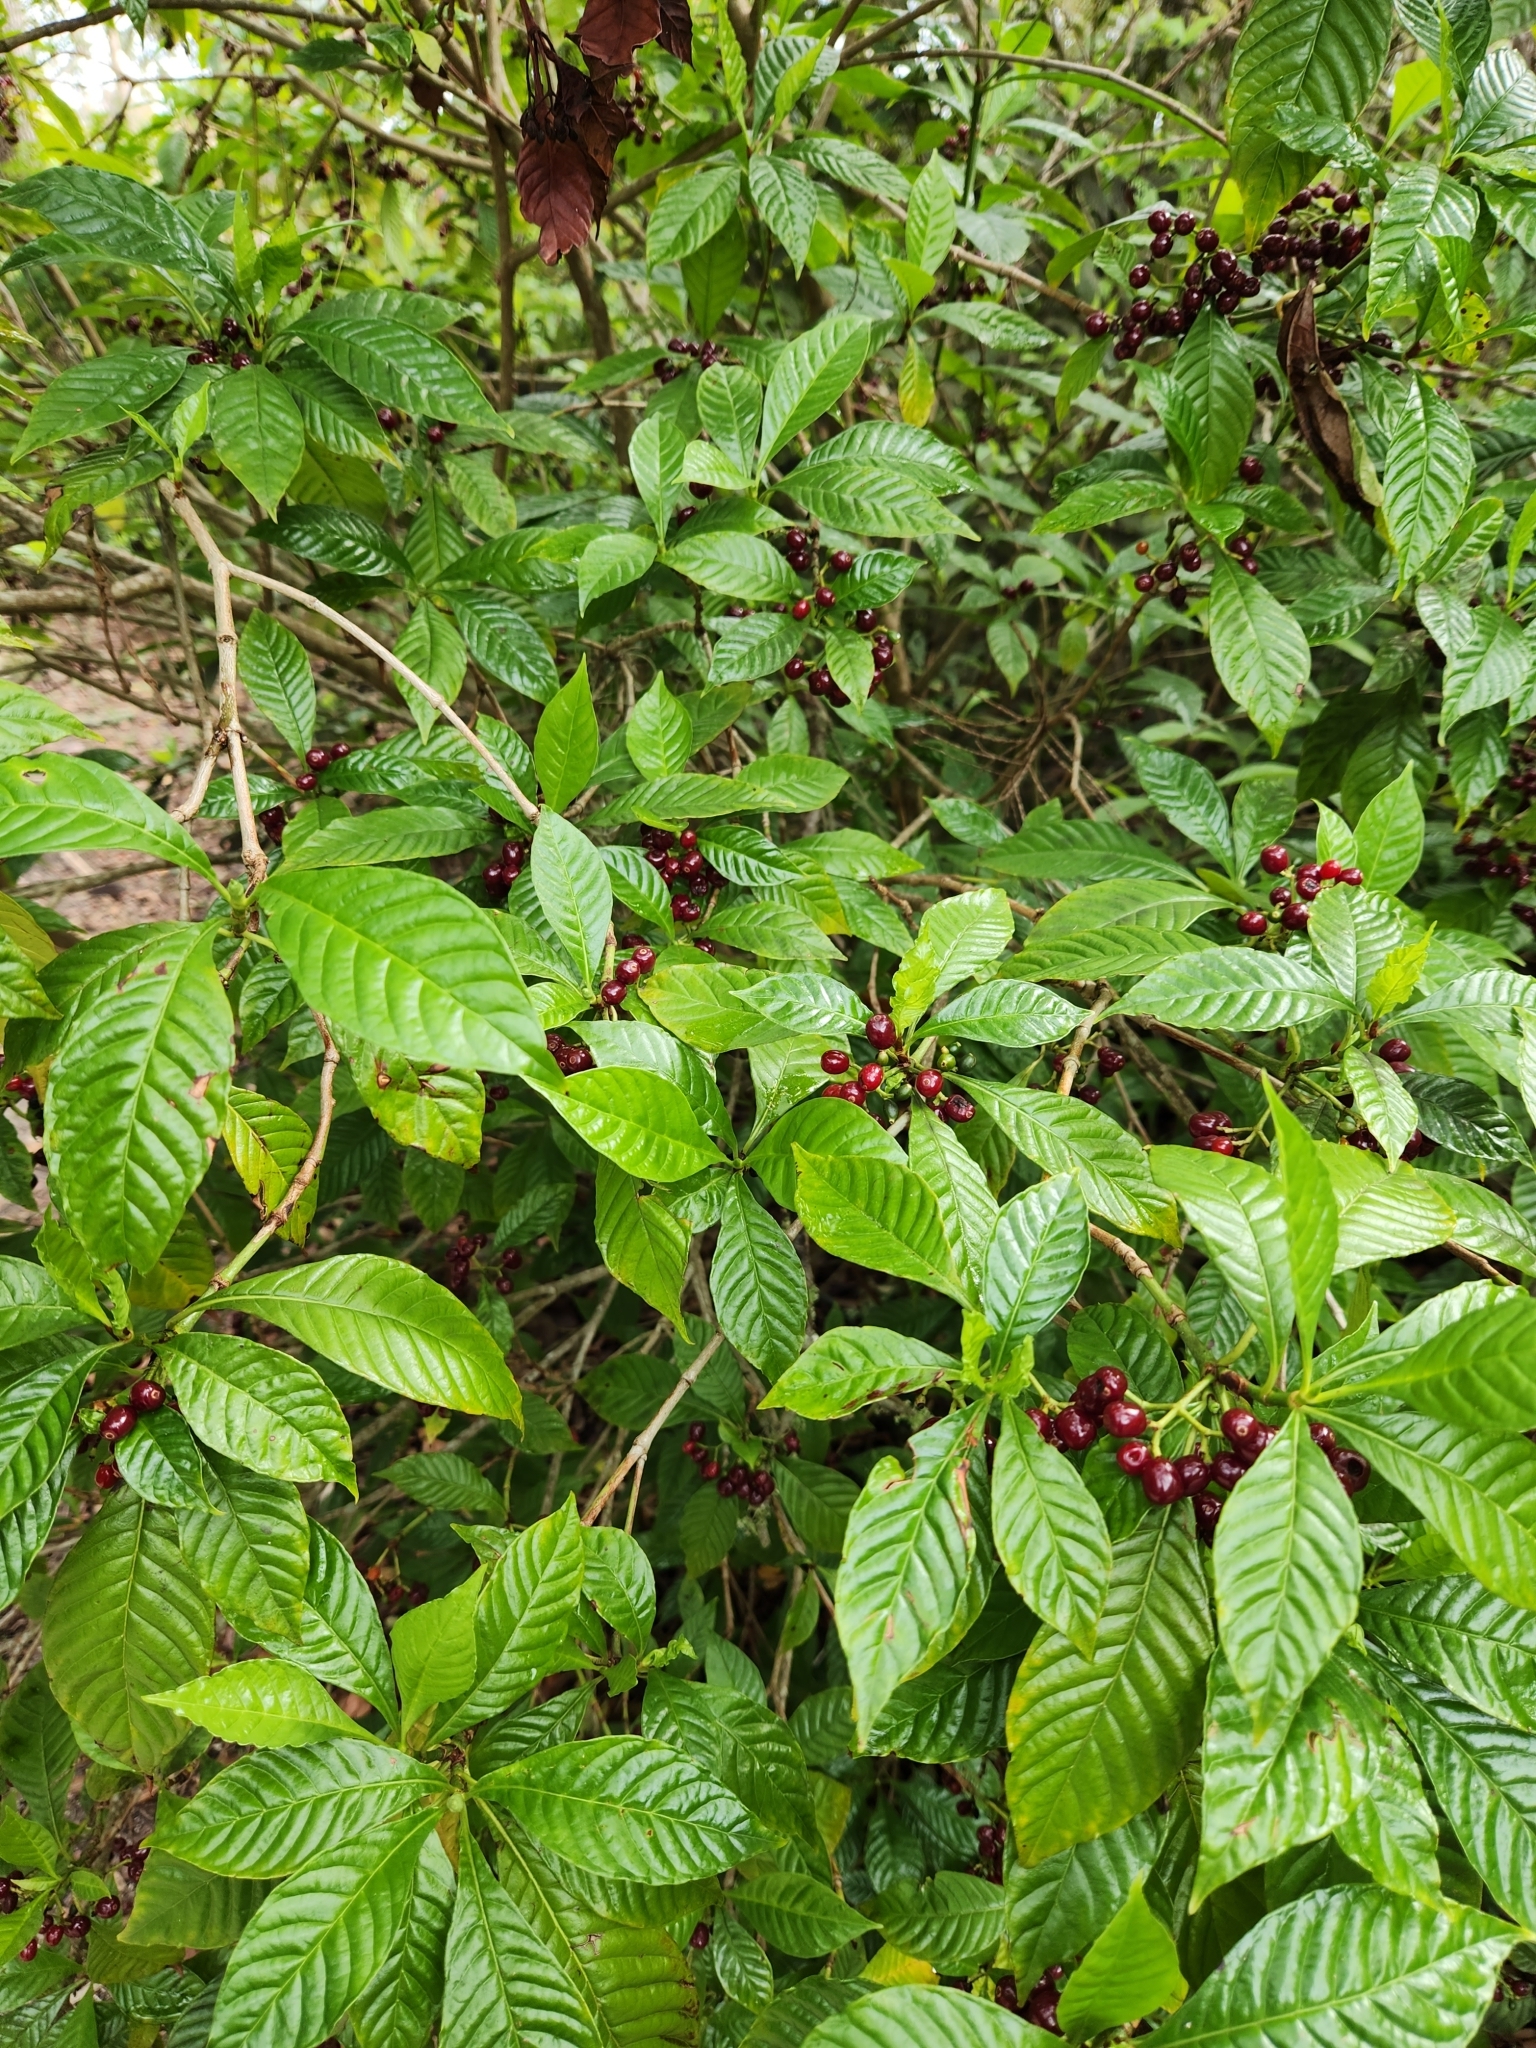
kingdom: Plantae
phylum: Tracheophyta
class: Magnoliopsida
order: Gentianales
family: Rubiaceae
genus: Psychotria
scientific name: Psychotria nervosa
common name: Bastard cankerberry
